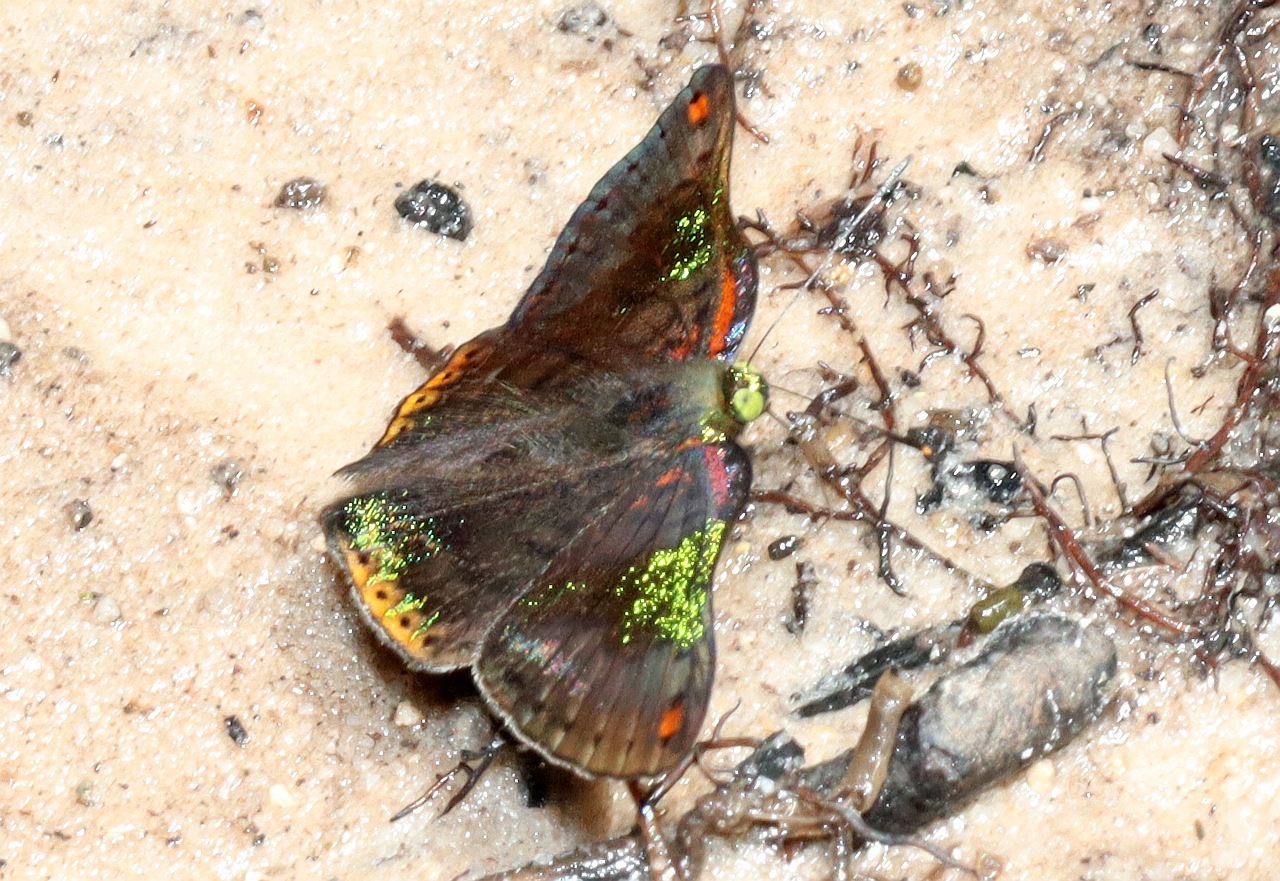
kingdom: Animalia
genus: Caria
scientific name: Caria trochilus
